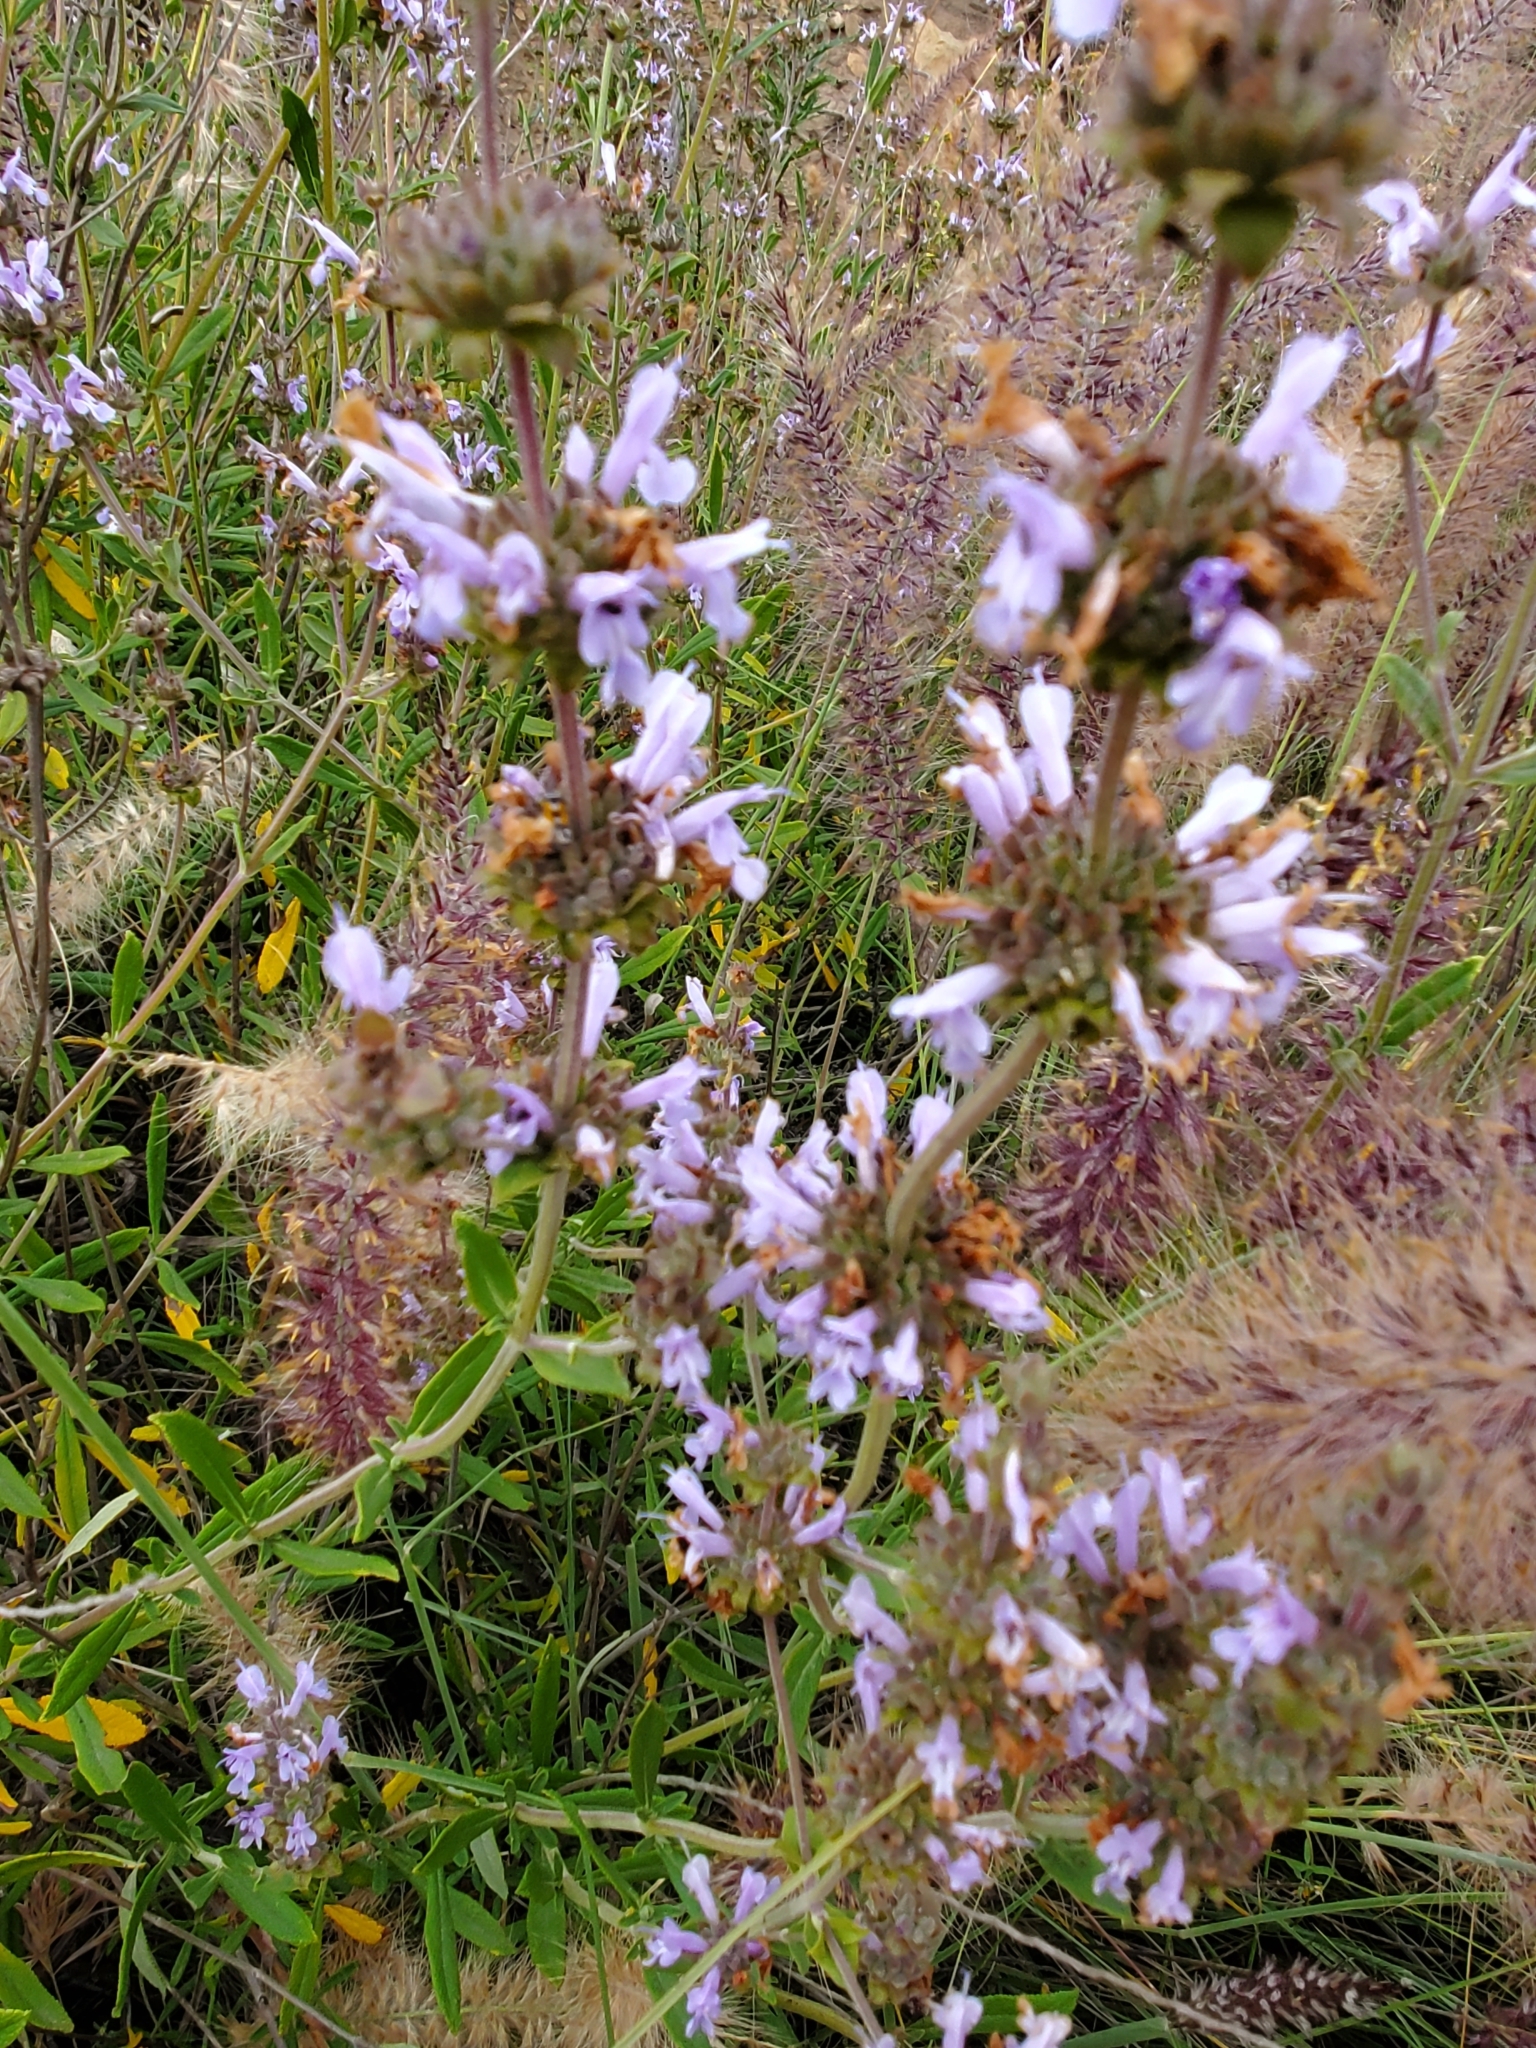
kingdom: Plantae
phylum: Tracheophyta
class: Magnoliopsida
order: Lamiales
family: Lamiaceae
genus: Salvia
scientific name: Salvia mellifera
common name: Black sage
